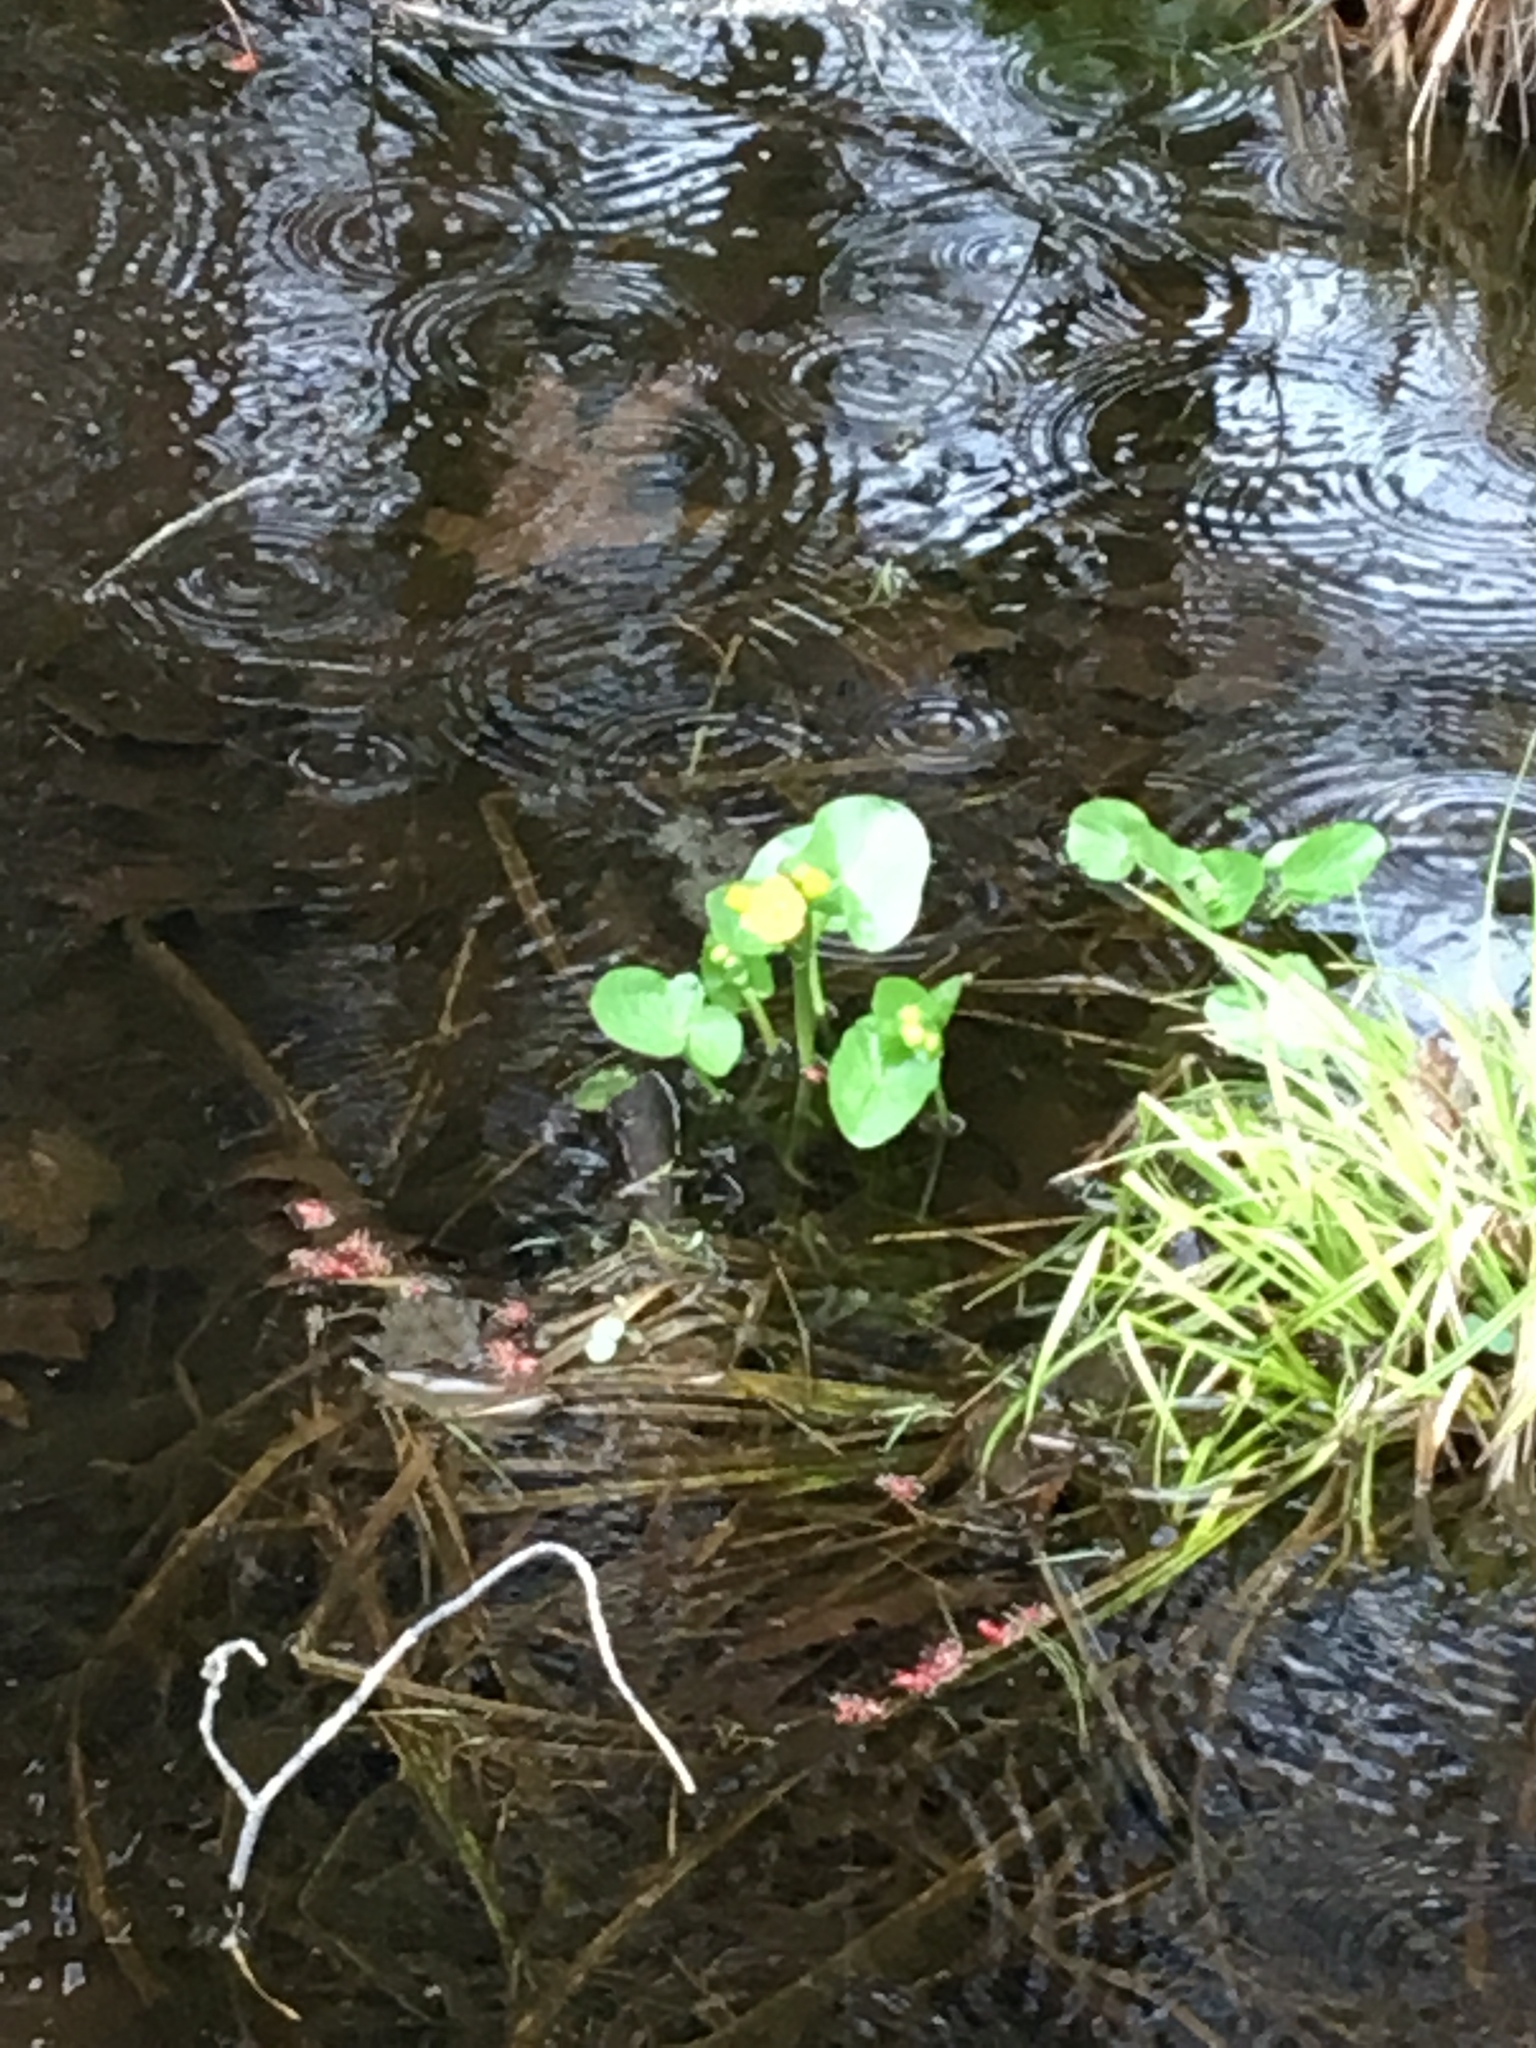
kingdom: Plantae
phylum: Tracheophyta
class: Magnoliopsida
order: Ranunculales
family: Ranunculaceae
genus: Caltha
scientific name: Caltha palustris
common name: Marsh marigold
